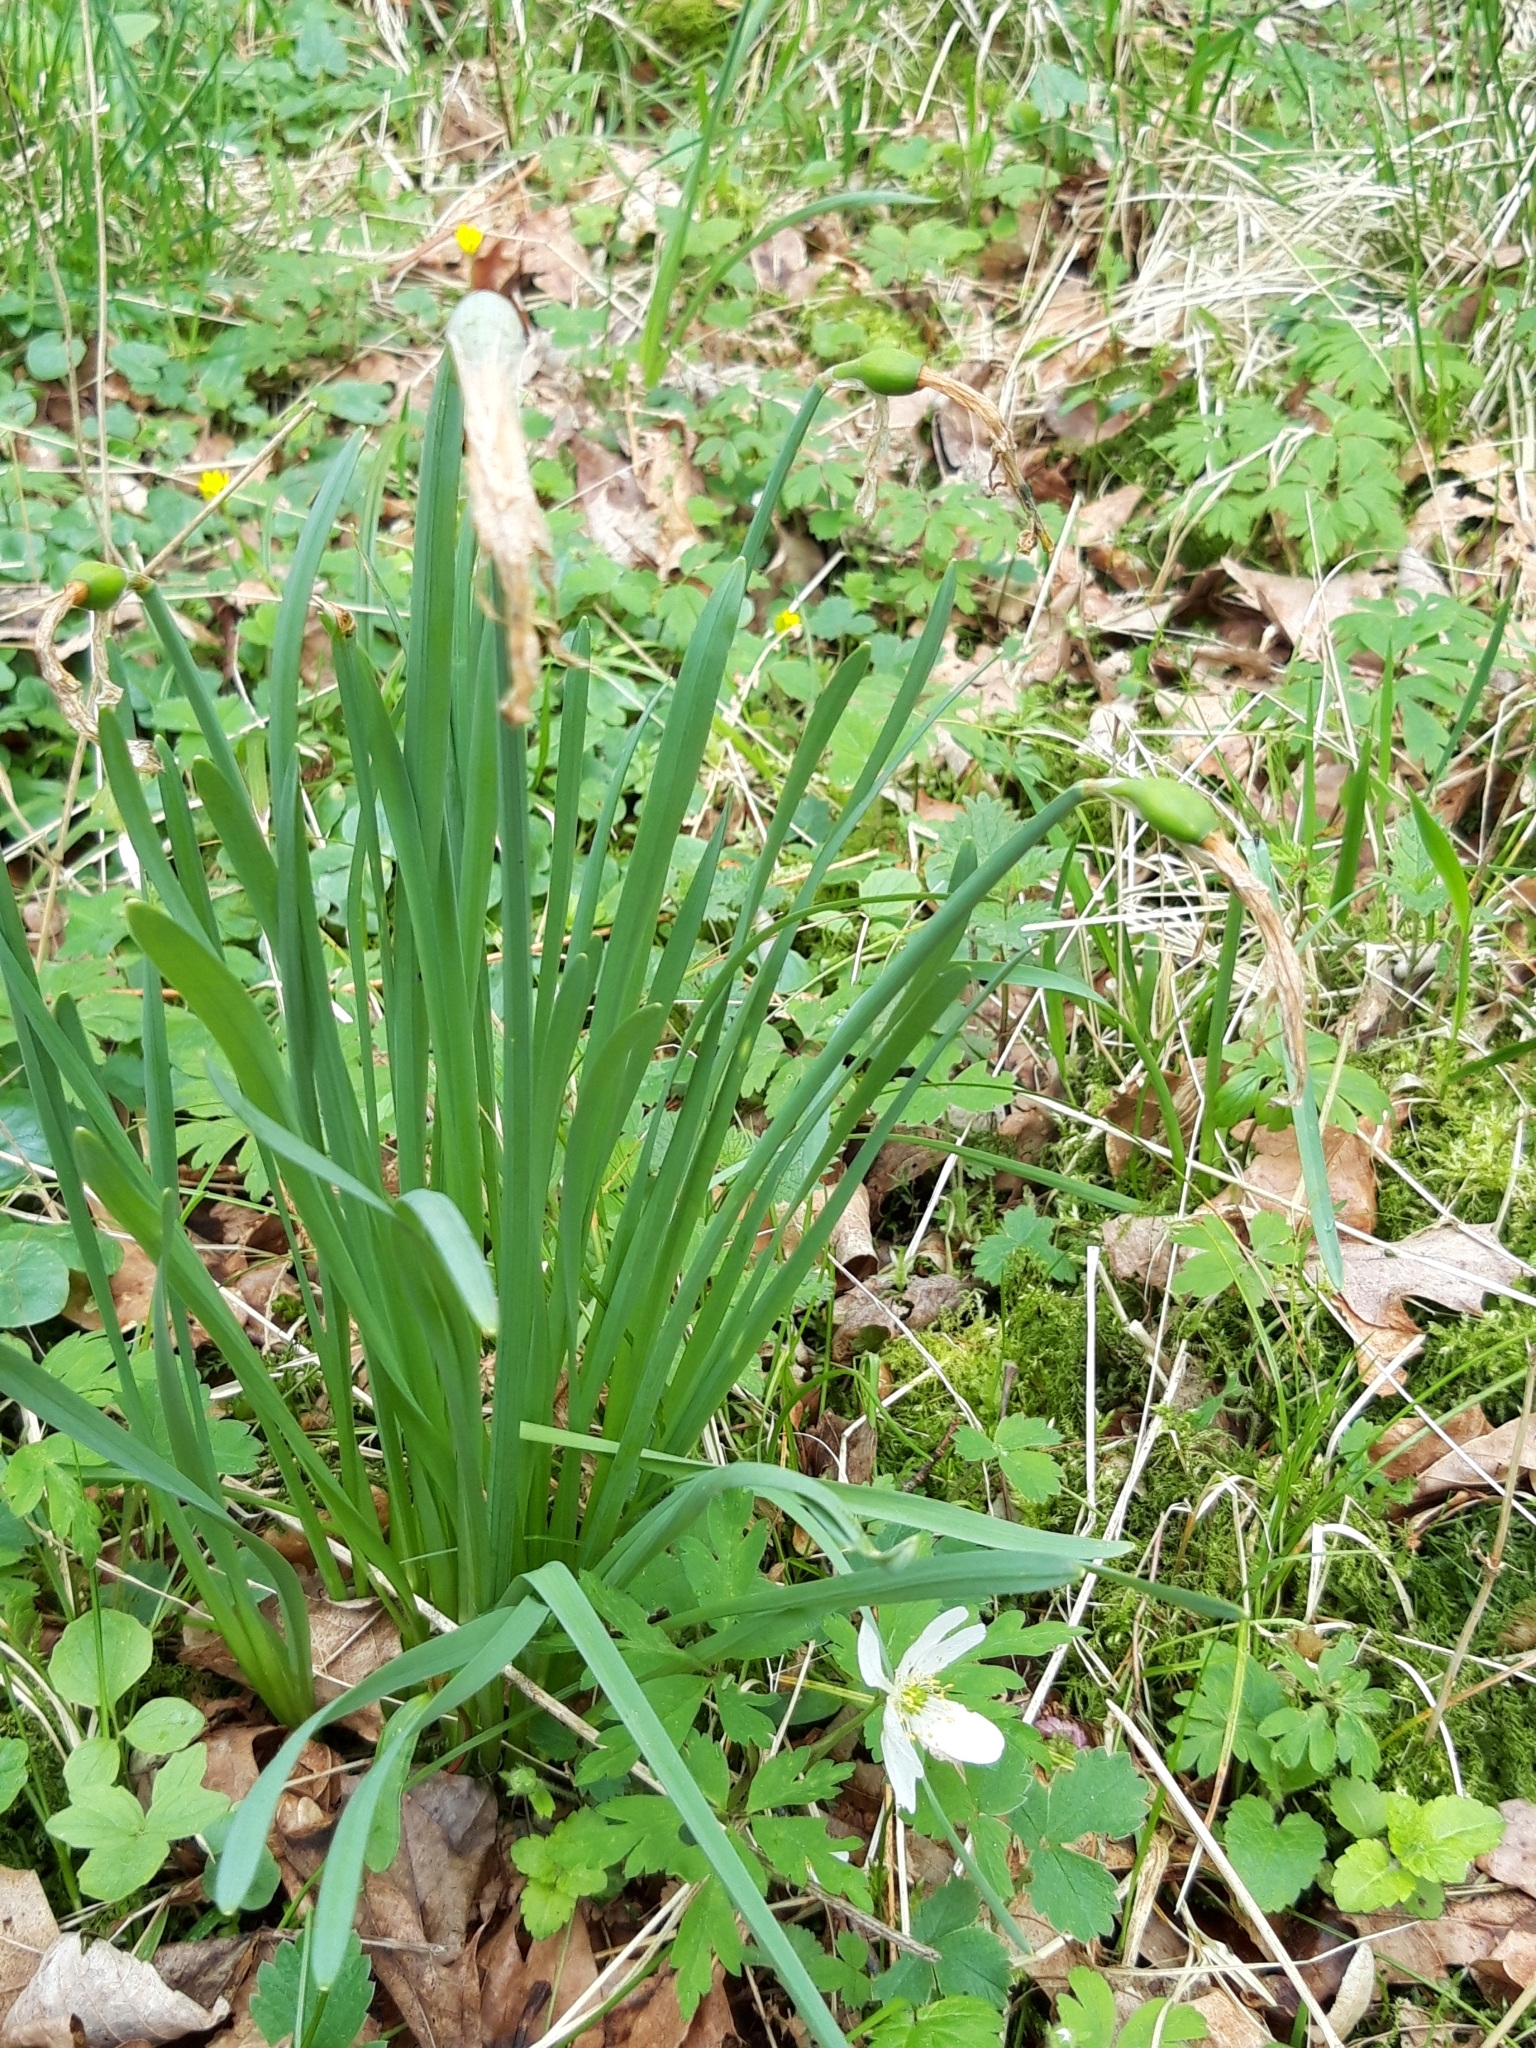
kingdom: Plantae
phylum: Tracheophyta
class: Liliopsida
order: Asparagales
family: Amaryllidaceae
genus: Narcissus
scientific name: Narcissus pseudonarcissus
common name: Daffodil
